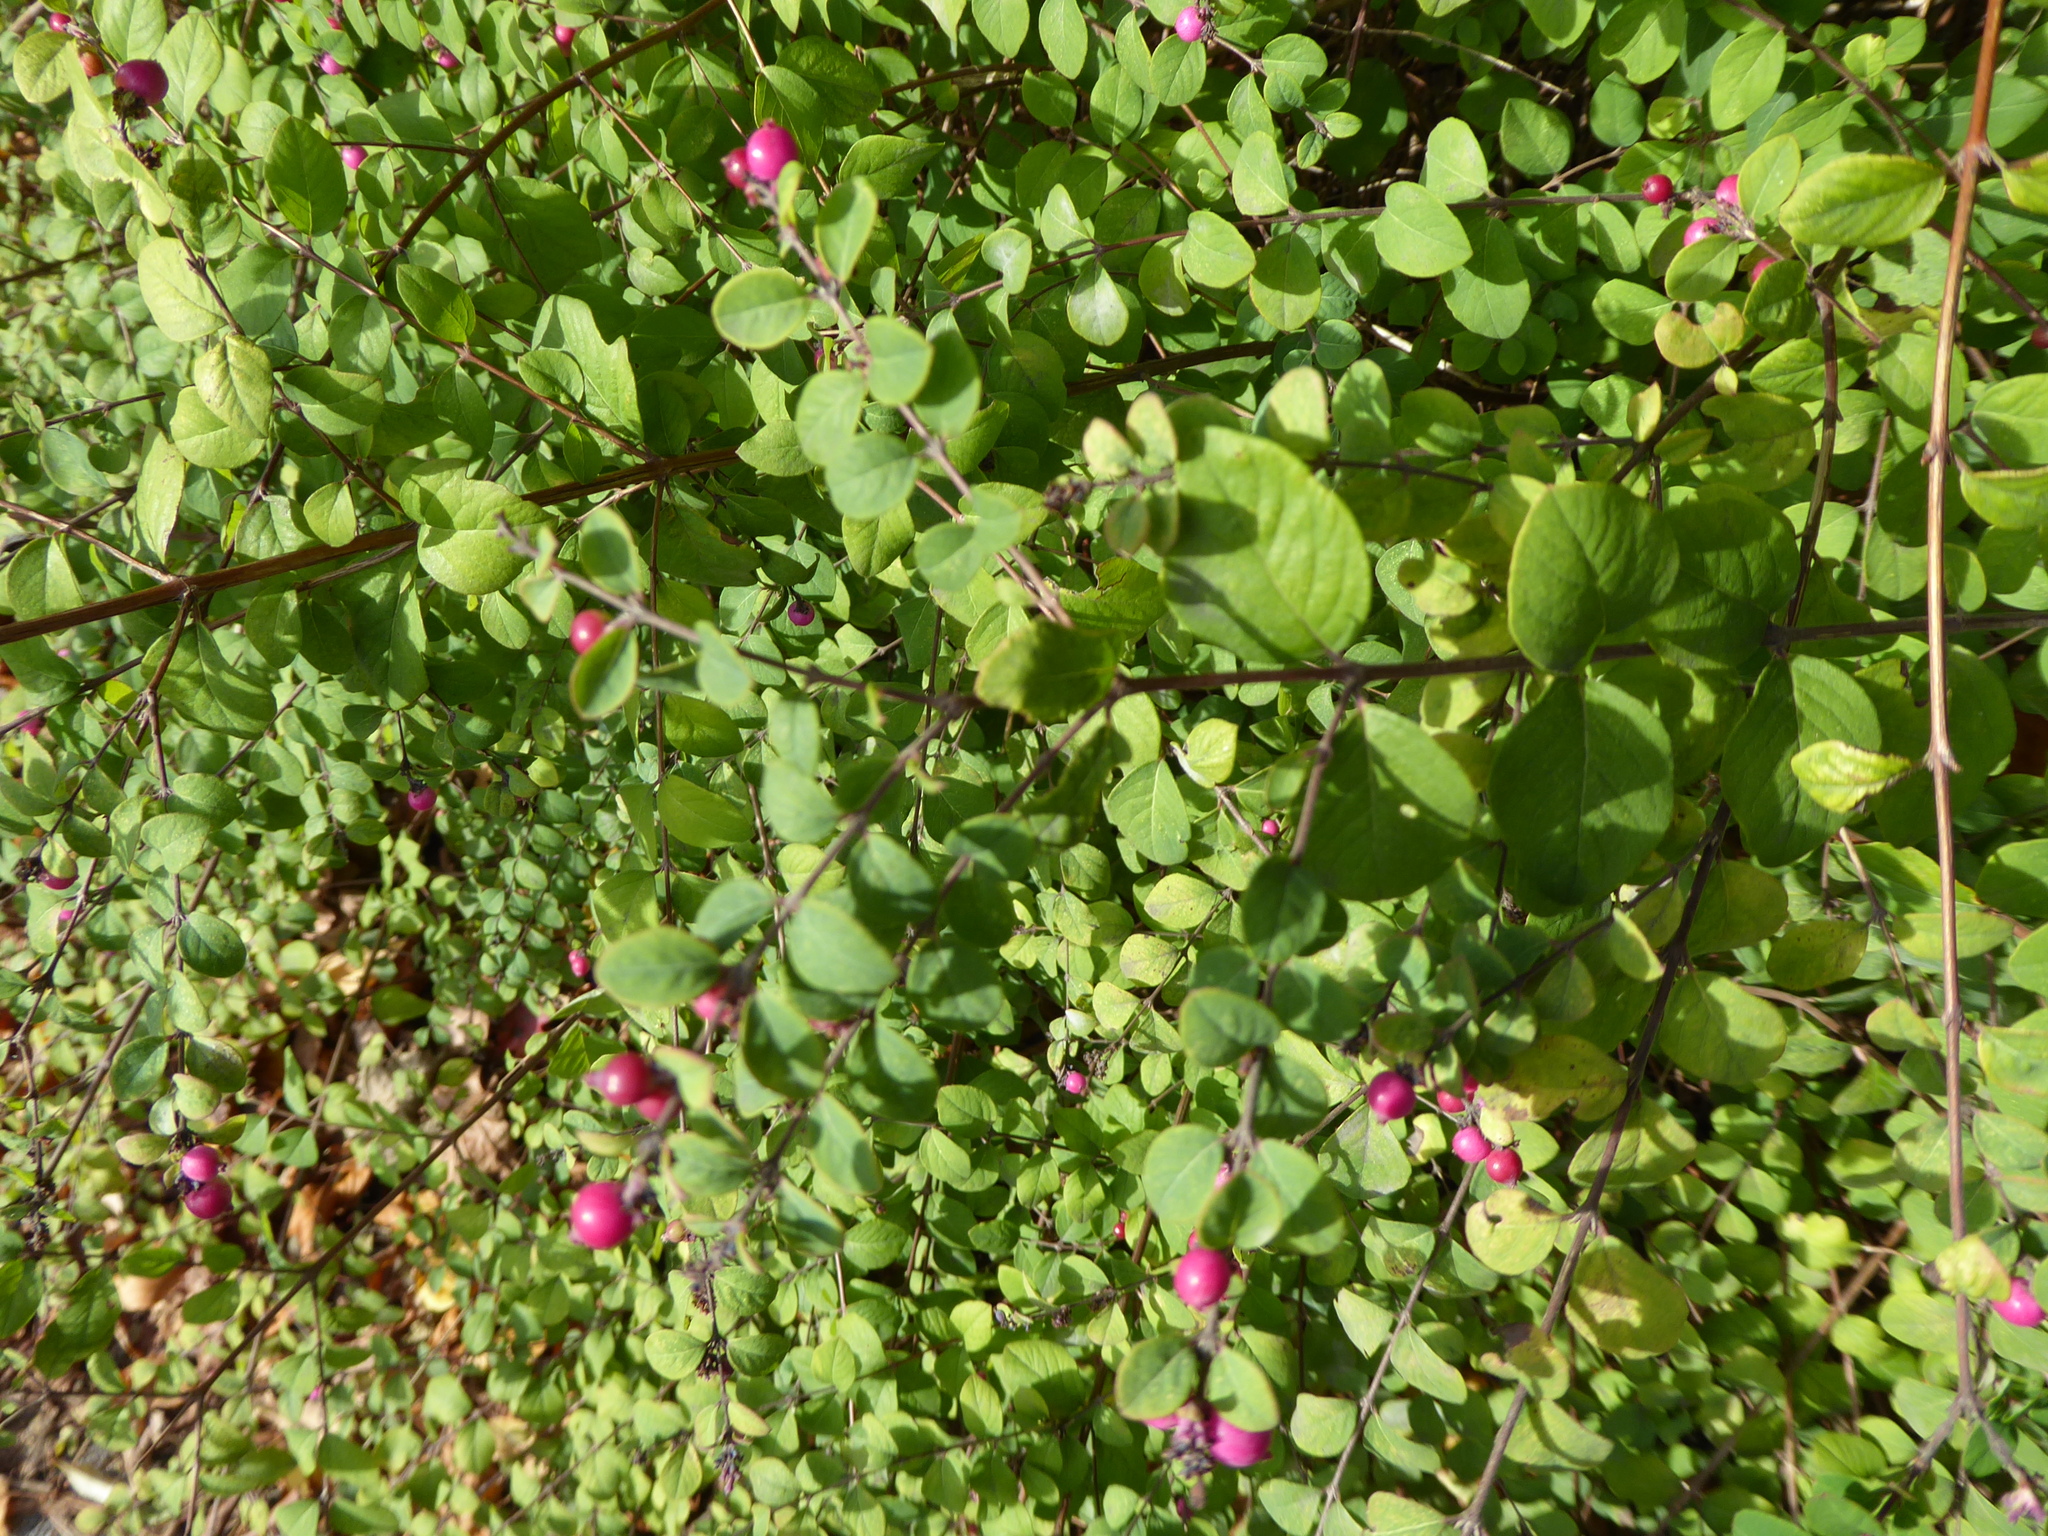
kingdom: Plantae
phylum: Tracheophyta
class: Magnoliopsida
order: Dipsacales
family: Caprifoliaceae
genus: Symphoricarpos
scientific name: Symphoricarpos chenaultii
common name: Hybrid coralberry
